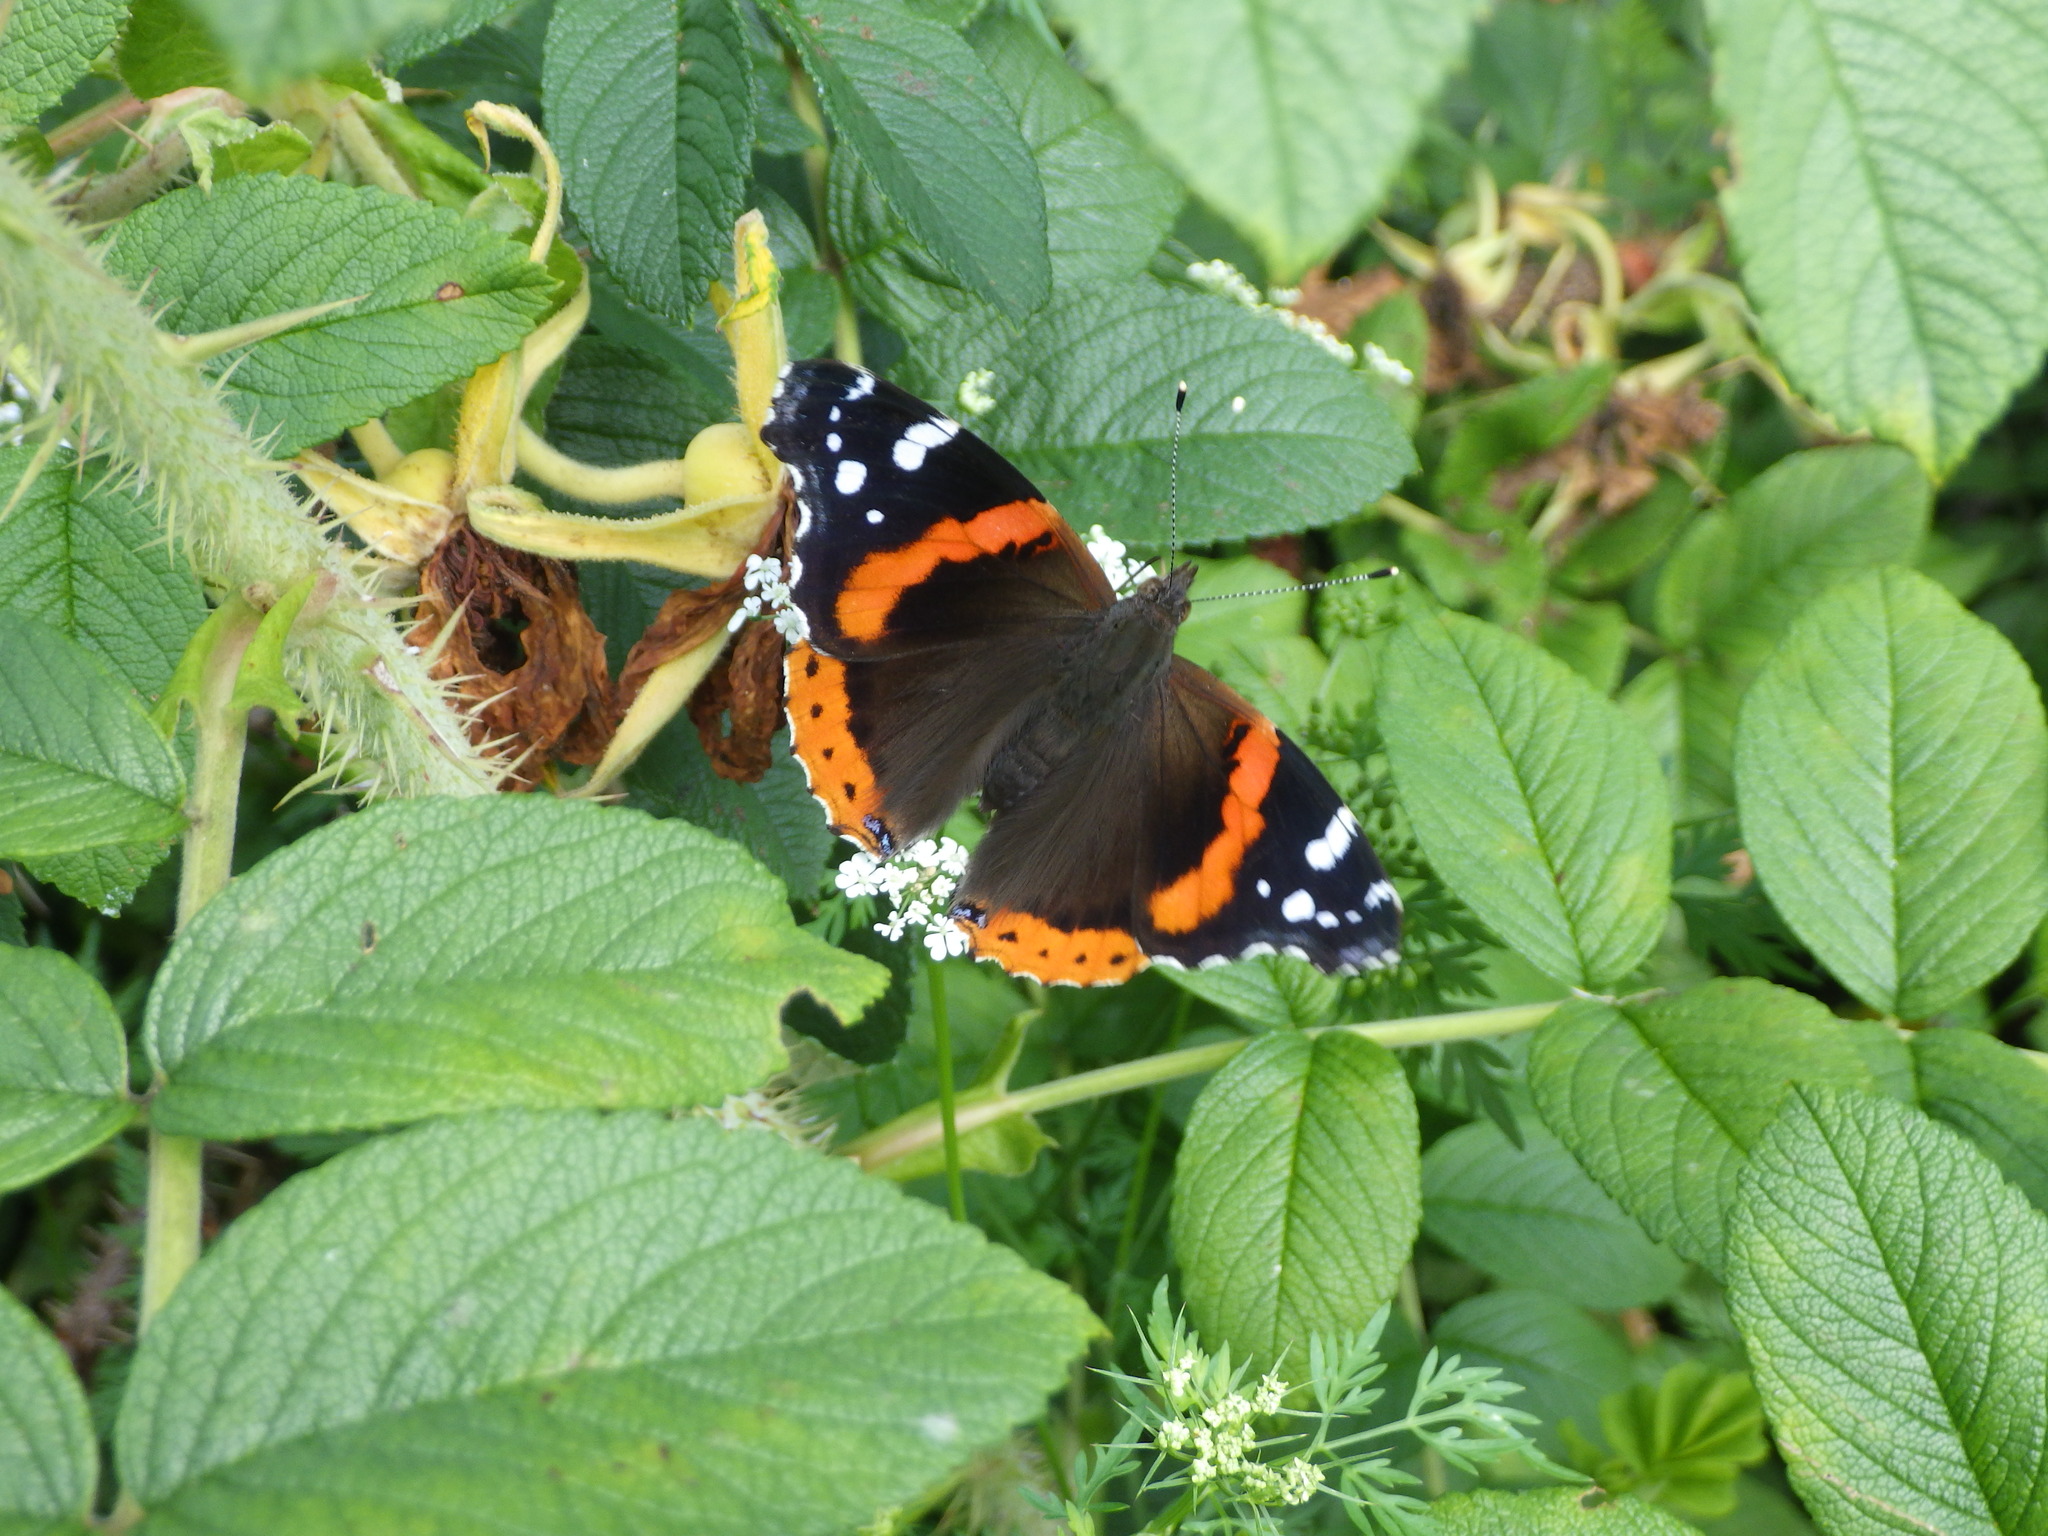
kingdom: Animalia
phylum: Arthropoda
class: Insecta
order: Lepidoptera
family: Nymphalidae
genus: Vanessa
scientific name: Vanessa atalanta
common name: Red admiral
